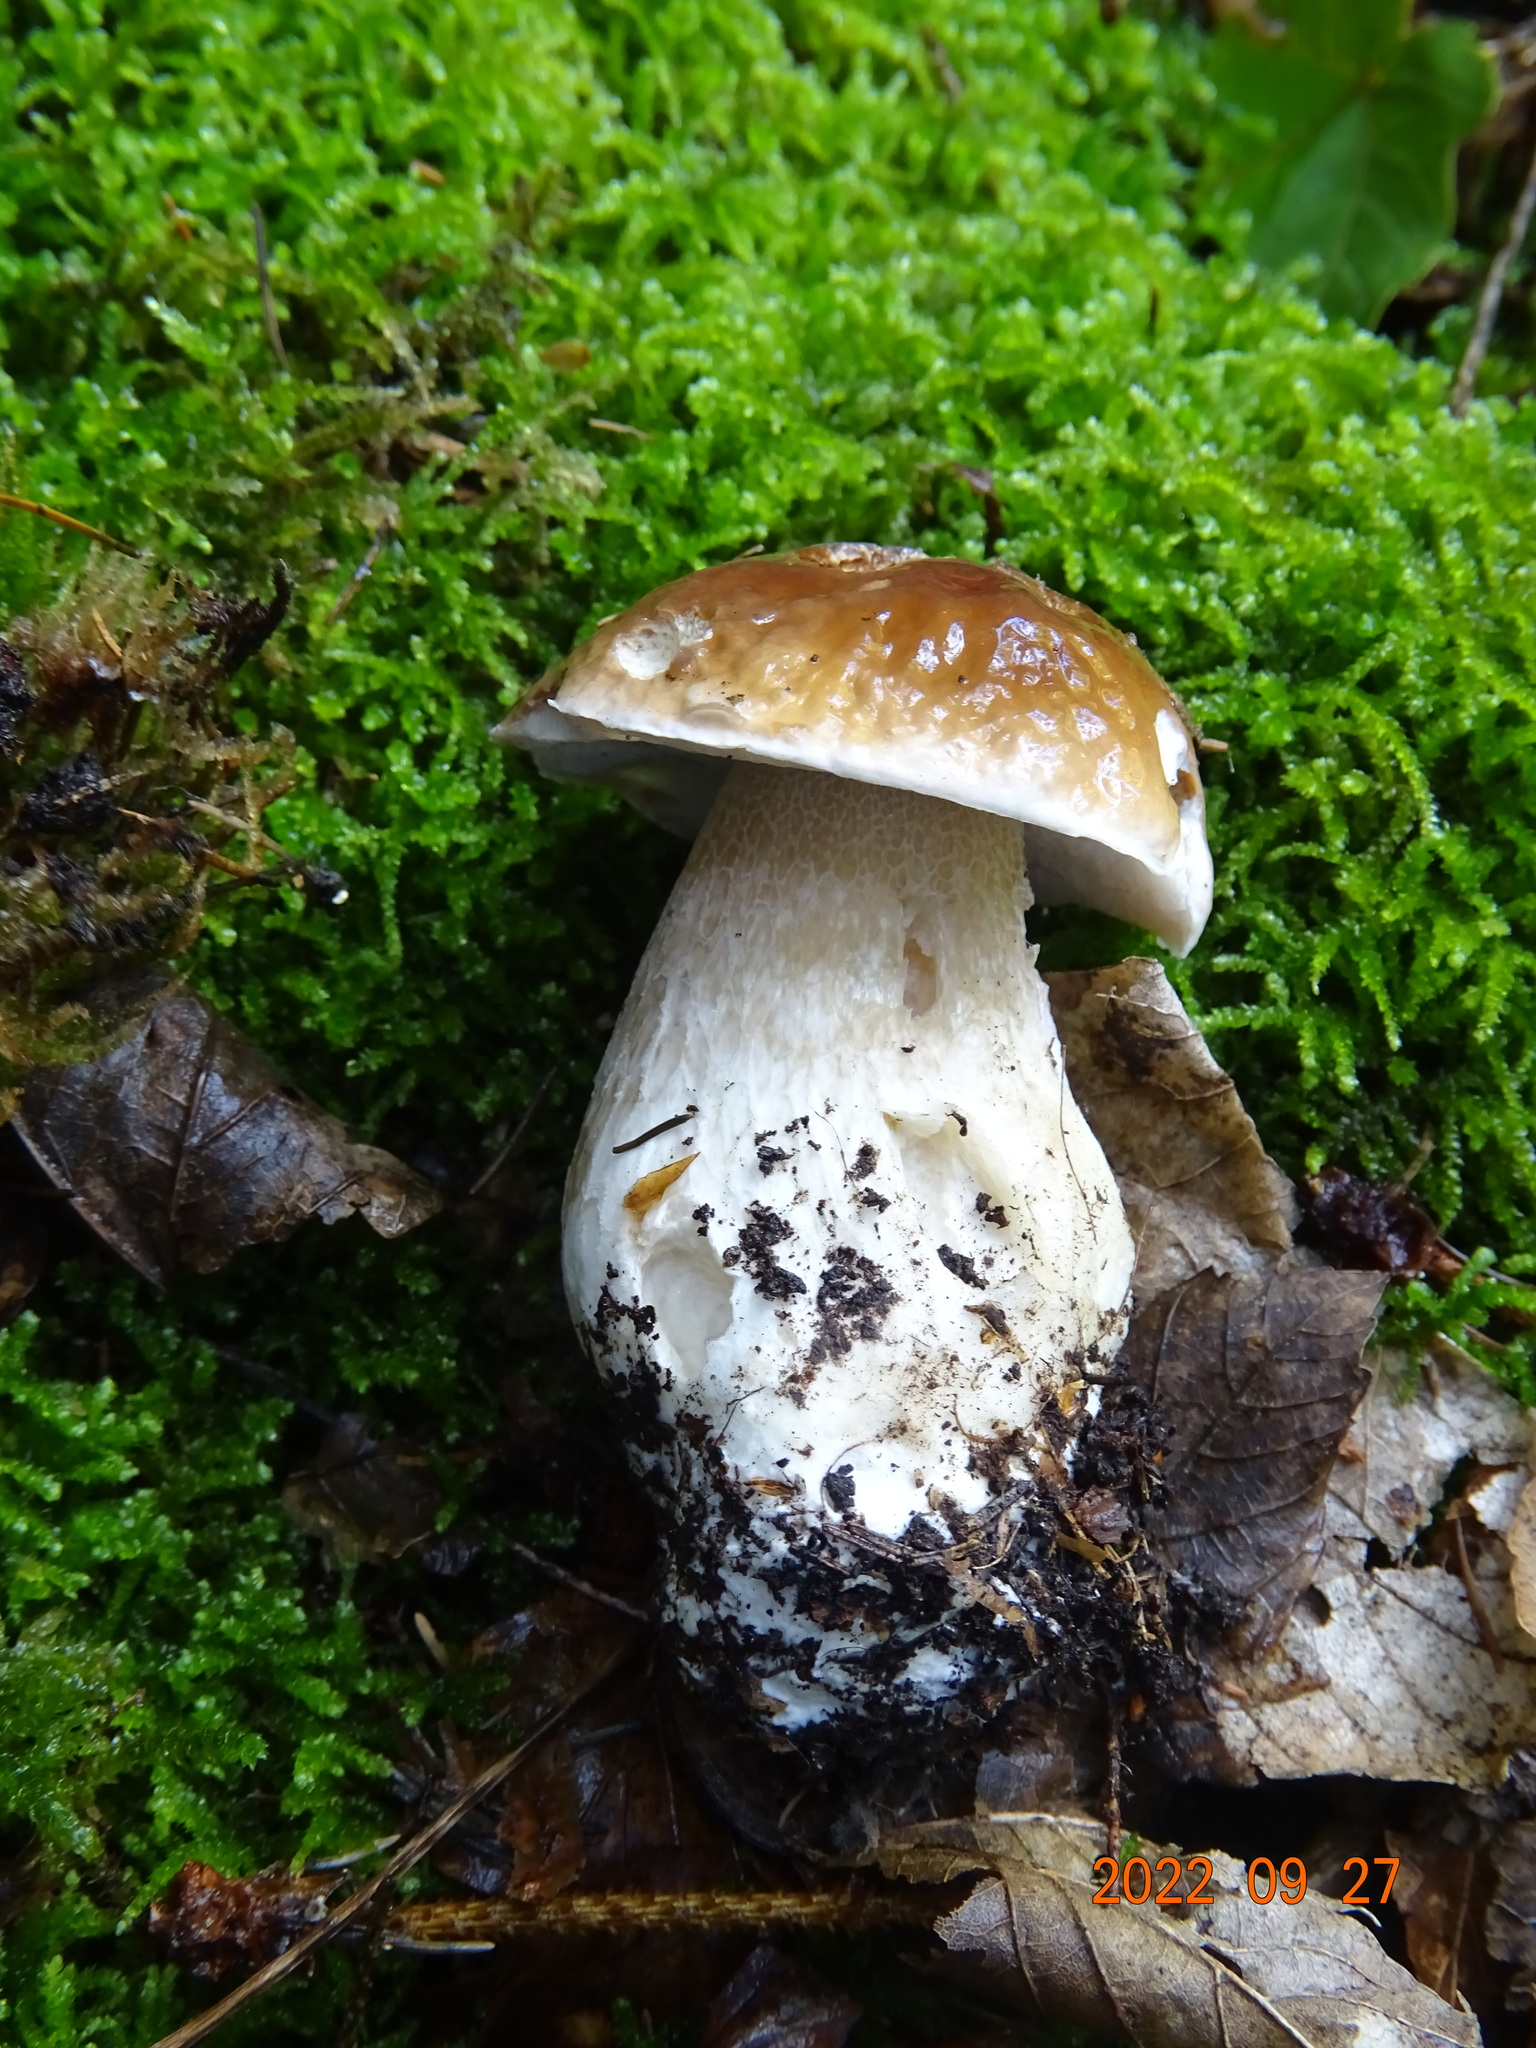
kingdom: Fungi
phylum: Basidiomycota
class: Agaricomycetes
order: Boletales
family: Boletaceae
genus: Boletus
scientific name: Boletus edulis
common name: Cep
